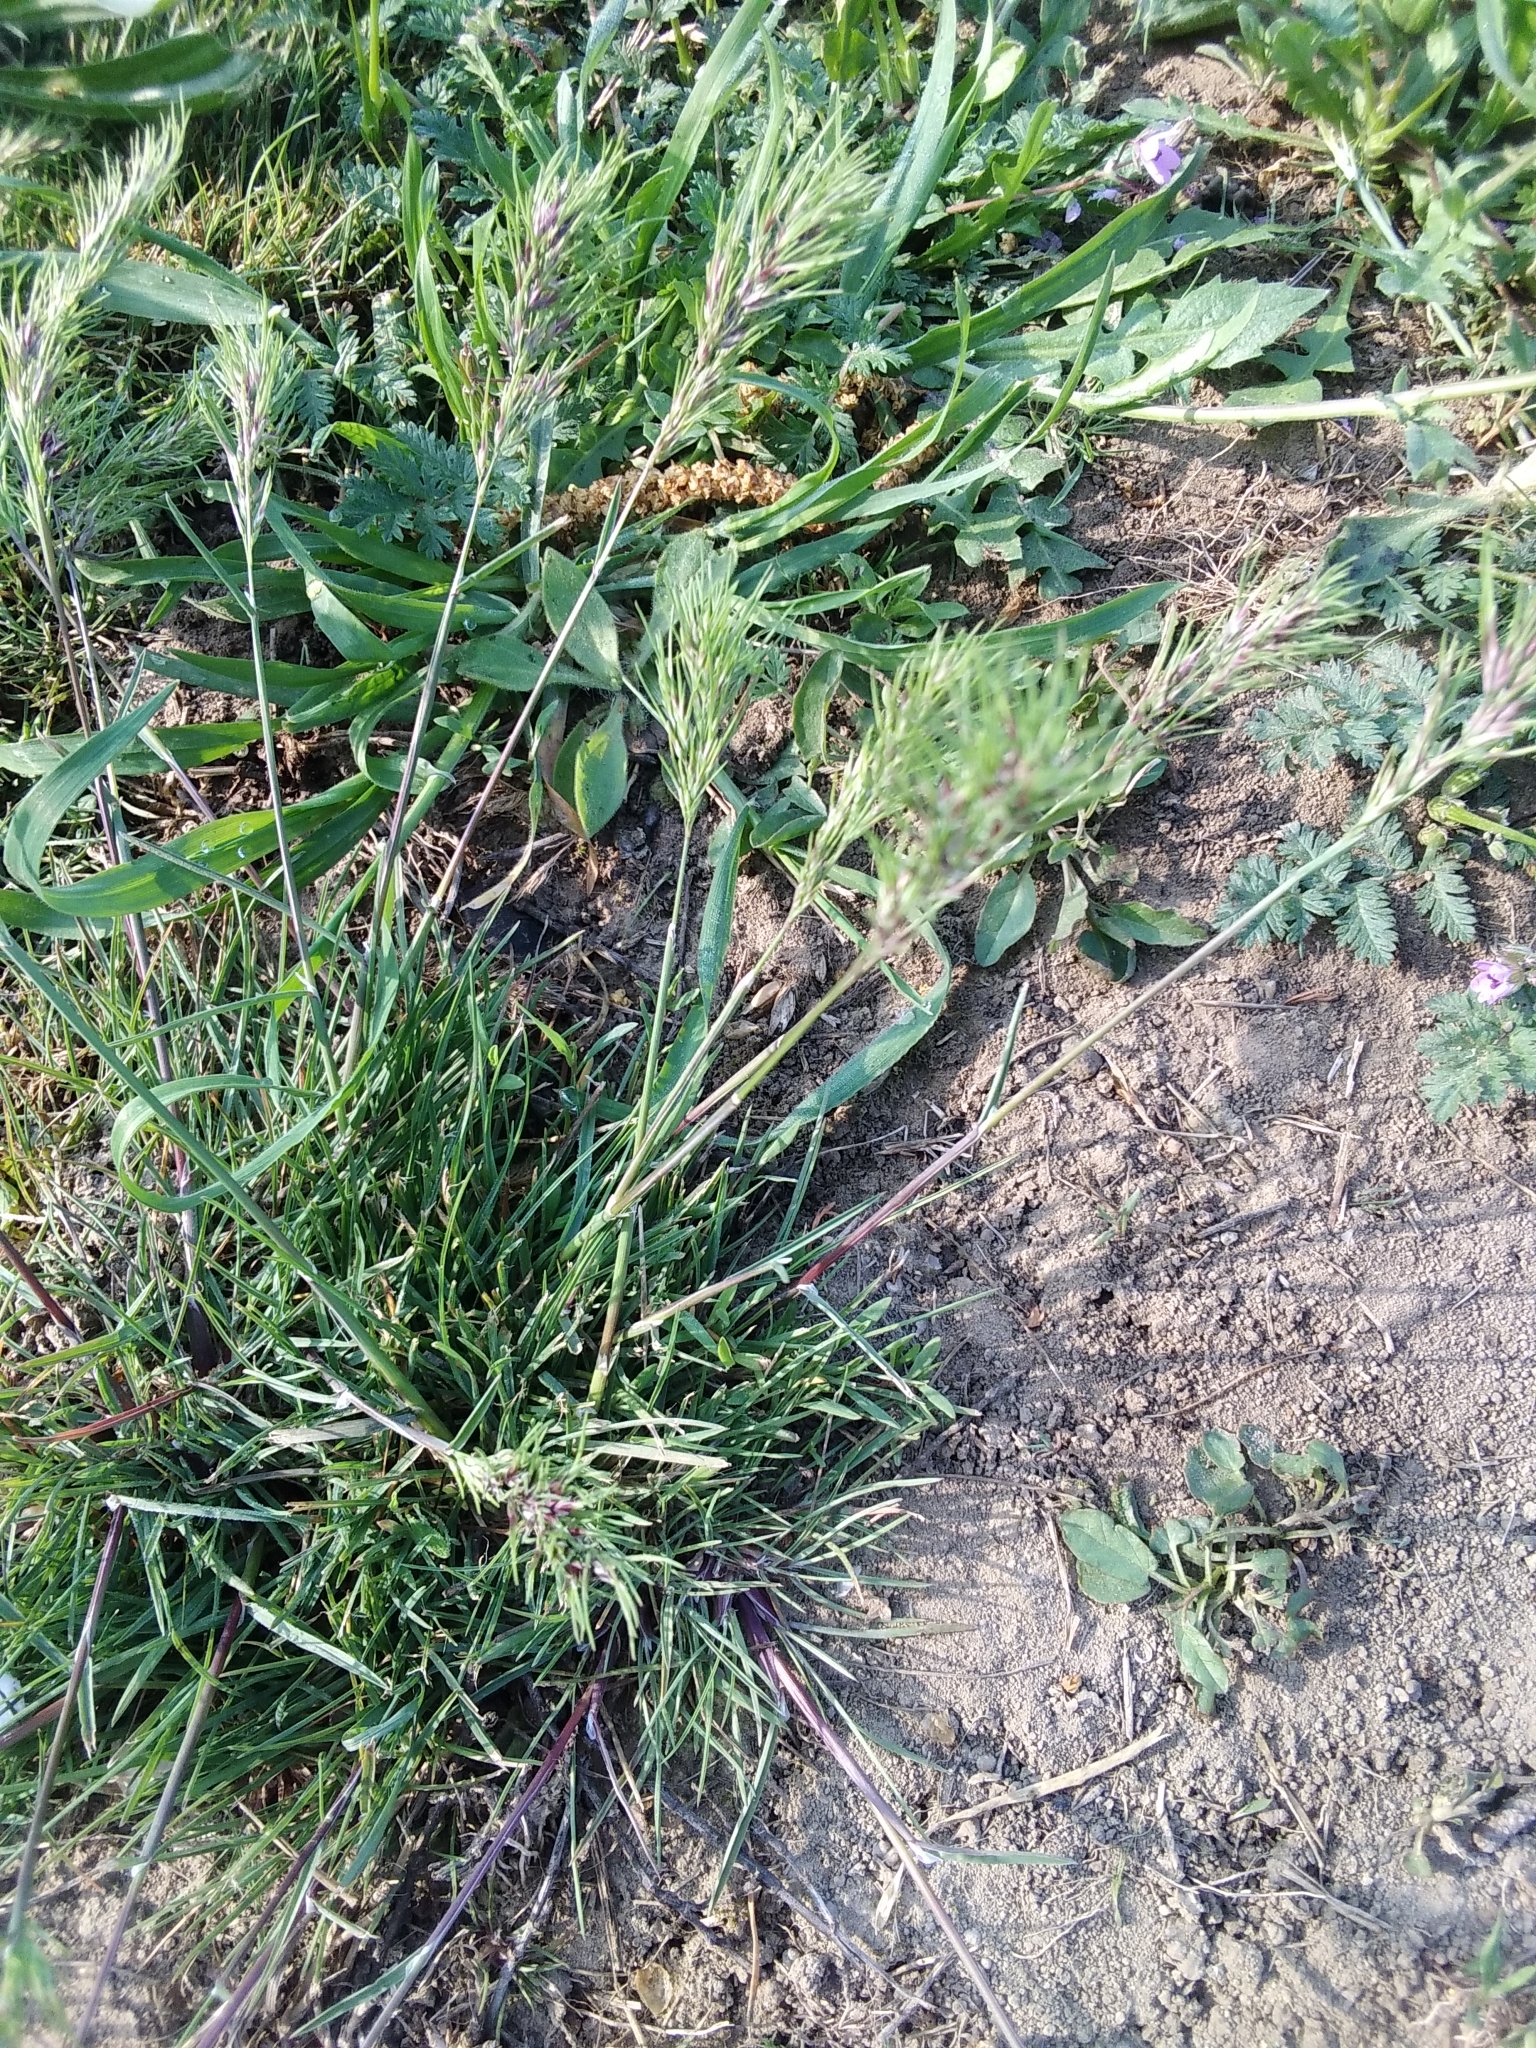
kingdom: Plantae
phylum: Tracheophyta
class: Liliopsida
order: Poales
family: Poaceae
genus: Poa
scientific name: Poa bulbosa
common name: Bulbous bluegrass
